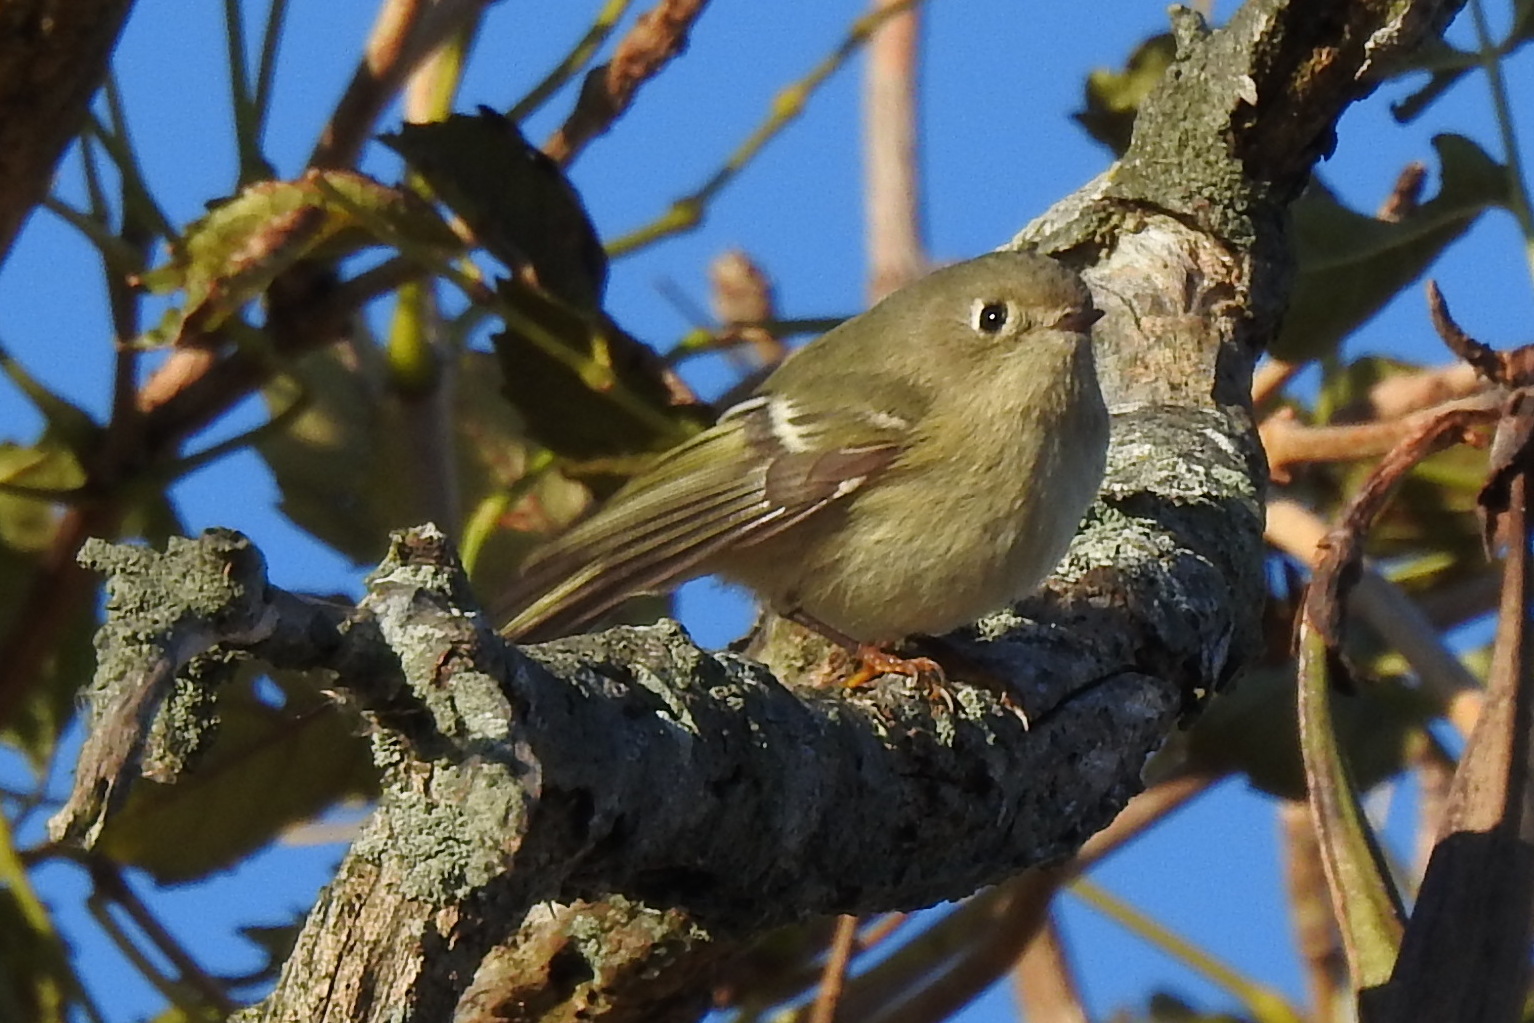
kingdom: Animalia
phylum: Chordata
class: Aves
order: Passeriformes
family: Regulidae
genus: Regulus
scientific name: Regulus calendula
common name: Ruby-crowned kinglet
